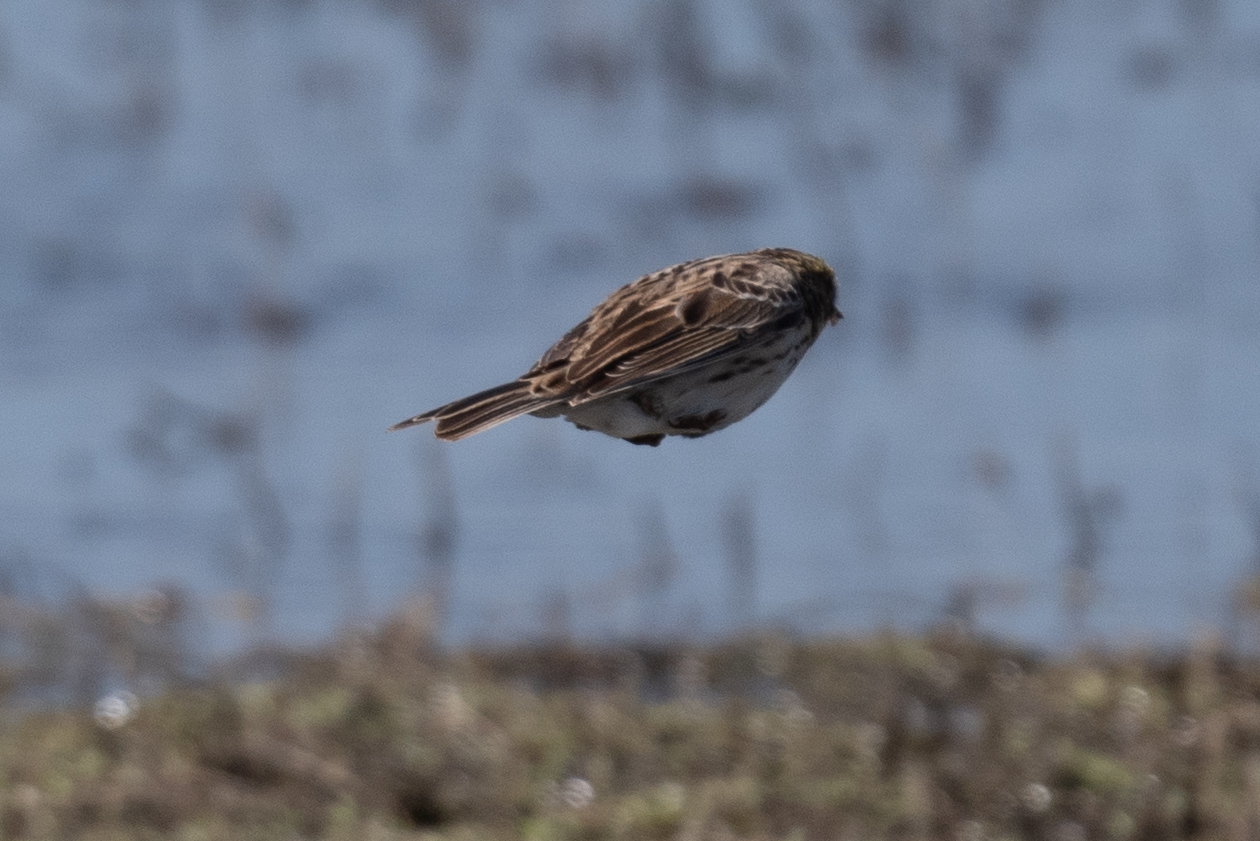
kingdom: Animalia
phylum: Chordata
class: Aves
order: Passeriformes
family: Passerellidae
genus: Passerculus
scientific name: Passerculus sandwichensis
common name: Savannah sparrow
